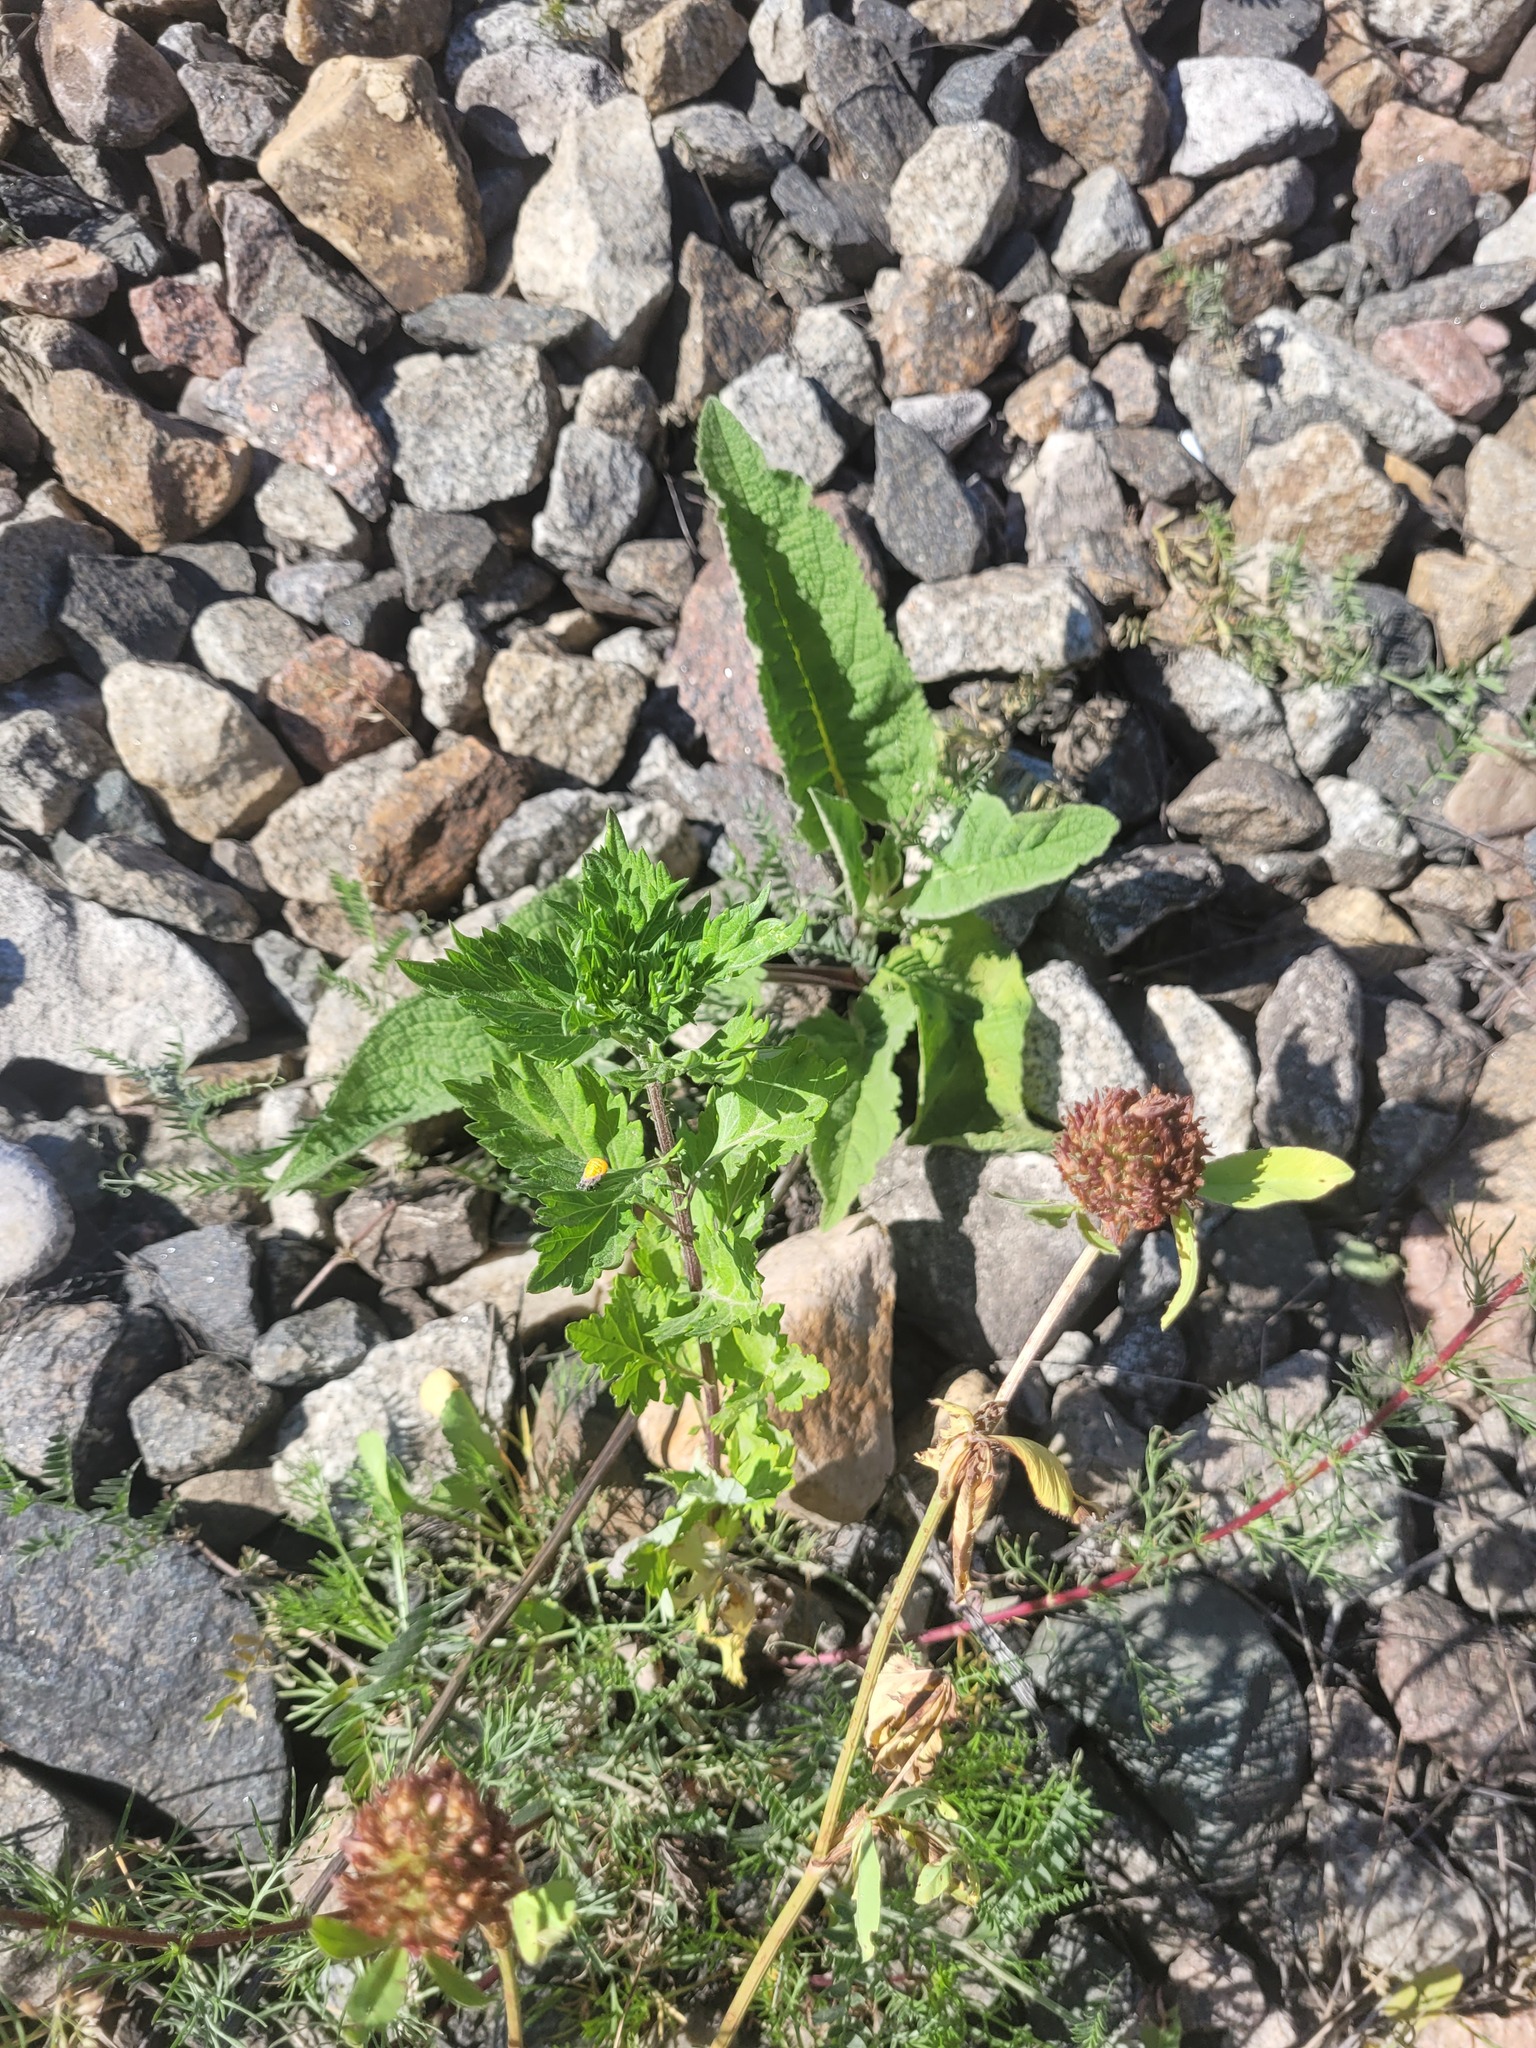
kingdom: Plantae
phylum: Tracheophyta
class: Magnoliopsida
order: Asterales
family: Asteraceae
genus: Artemisia
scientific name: Artemisia vulgaris
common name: Mugwort
